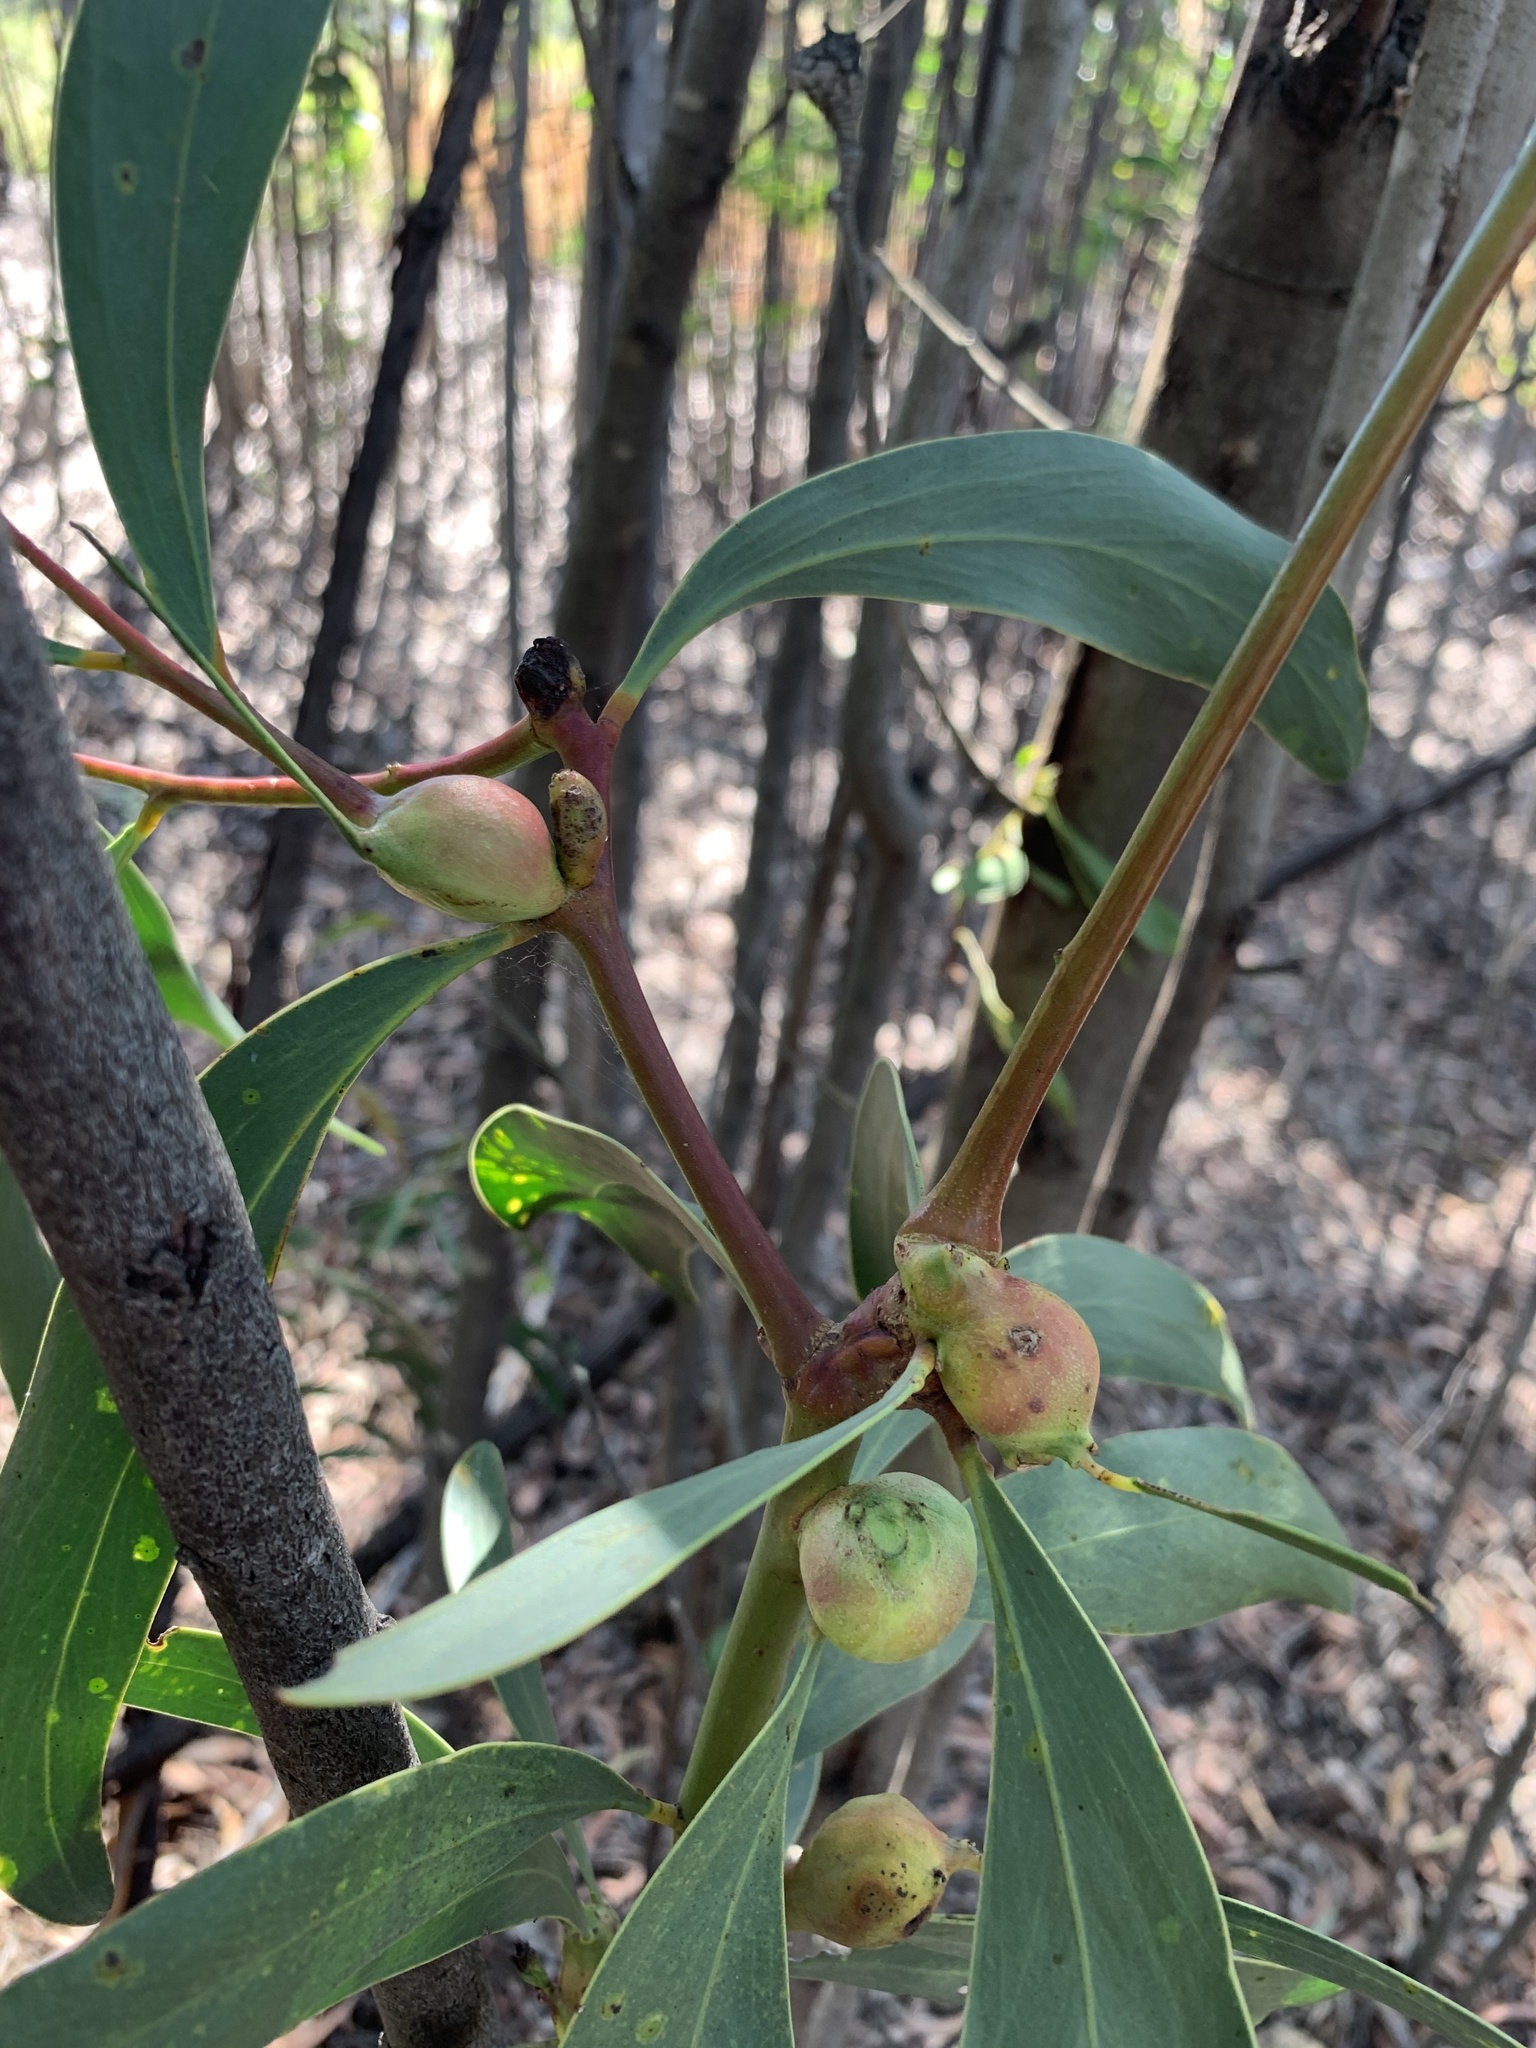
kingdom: Plantae
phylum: Tracheophyta
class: Magnoliopsida
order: Fabales
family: Fabaceae
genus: Acacia
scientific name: Acacia pycnantha
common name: Golden wattle
